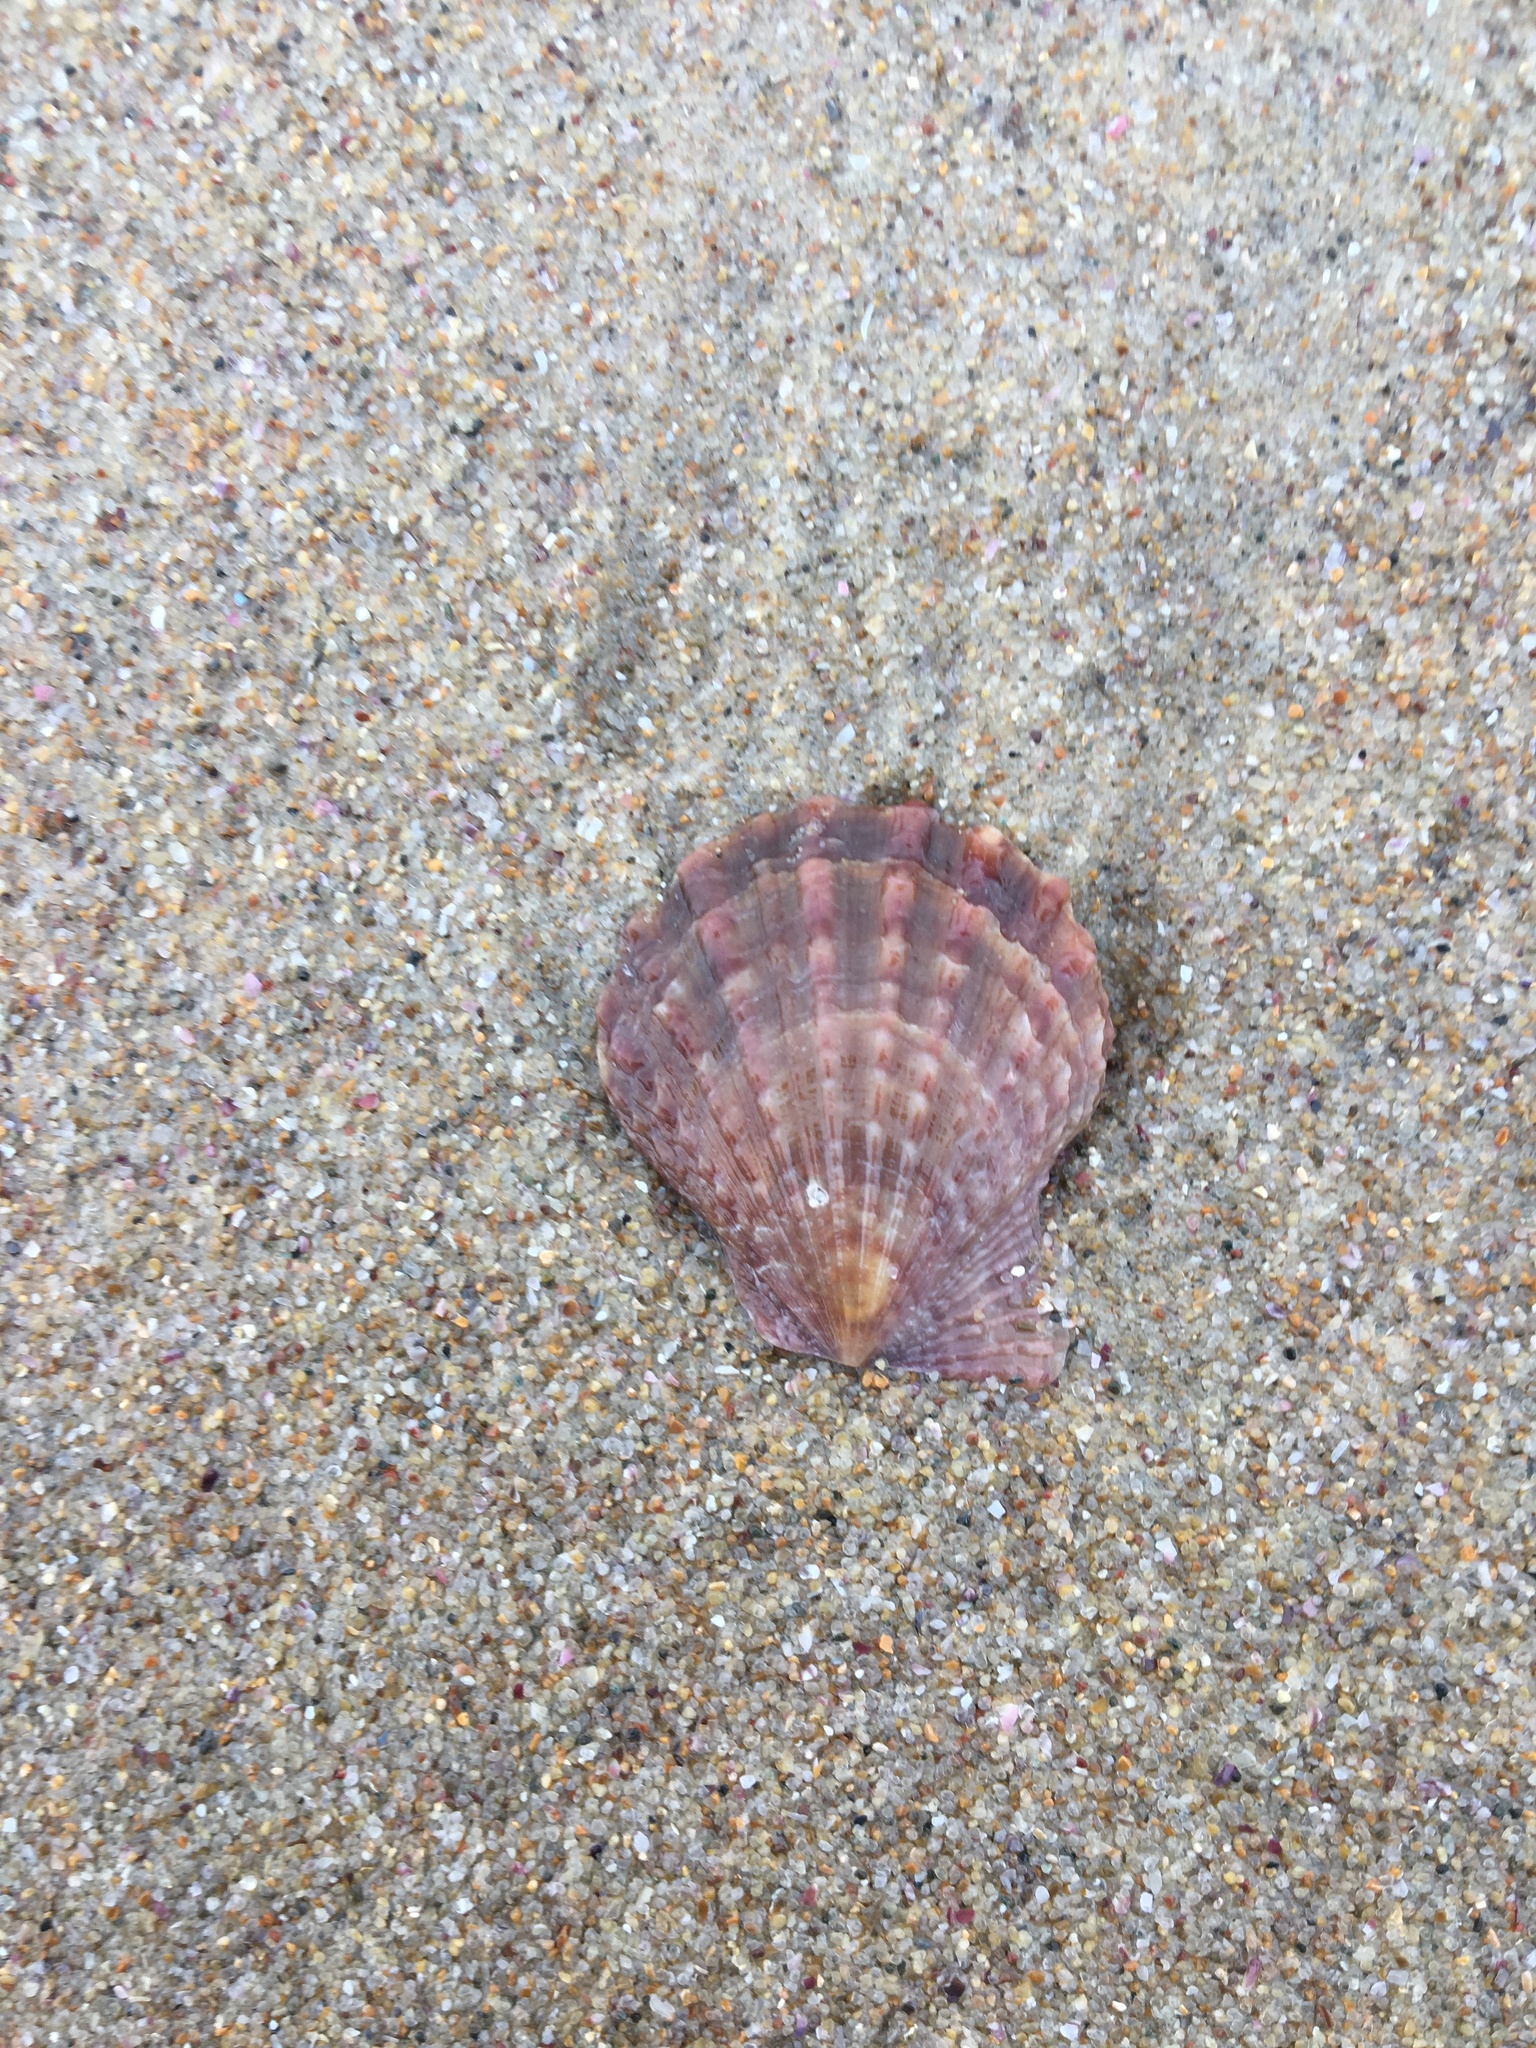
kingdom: Animalia
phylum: Mollusca
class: Bivalvia
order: Pectinida
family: Pectinidae
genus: Scaeochlamys
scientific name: Scaeochlamys livida
